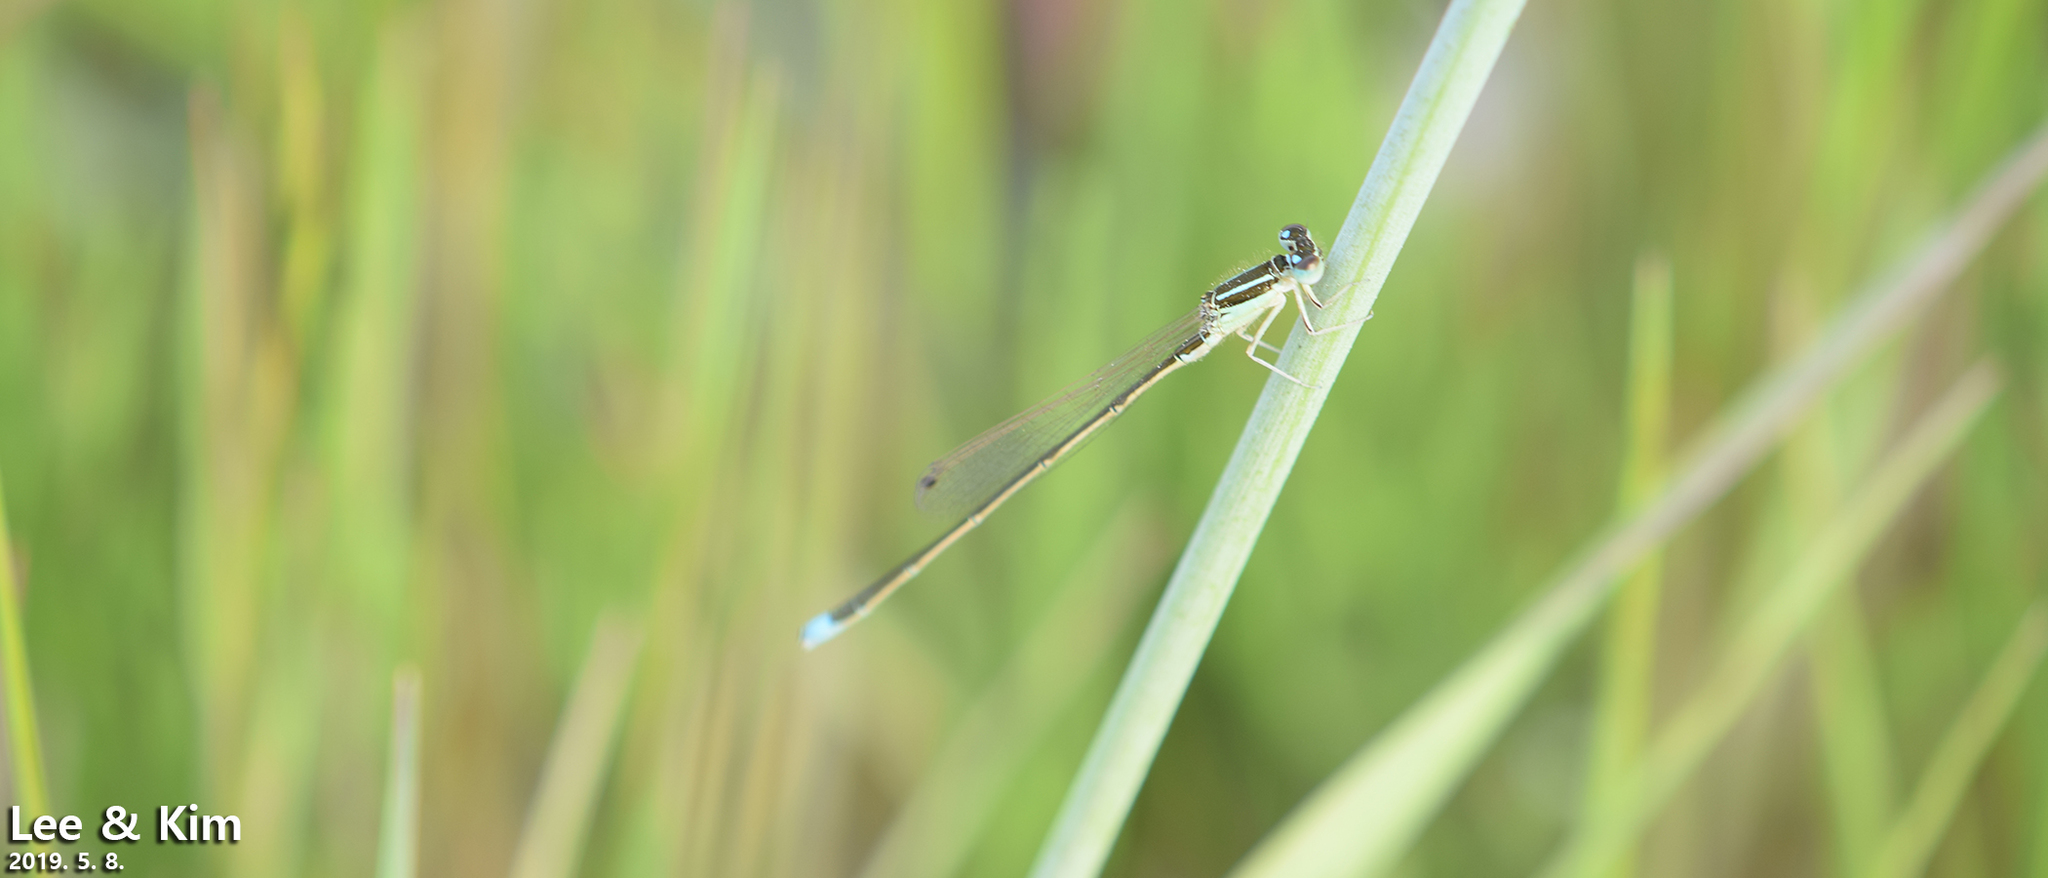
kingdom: Animalia
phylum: Arthropoda
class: Insecta
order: Odonata
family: Coenagrionidae
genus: Ischnura
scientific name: Ischnura asiatica
